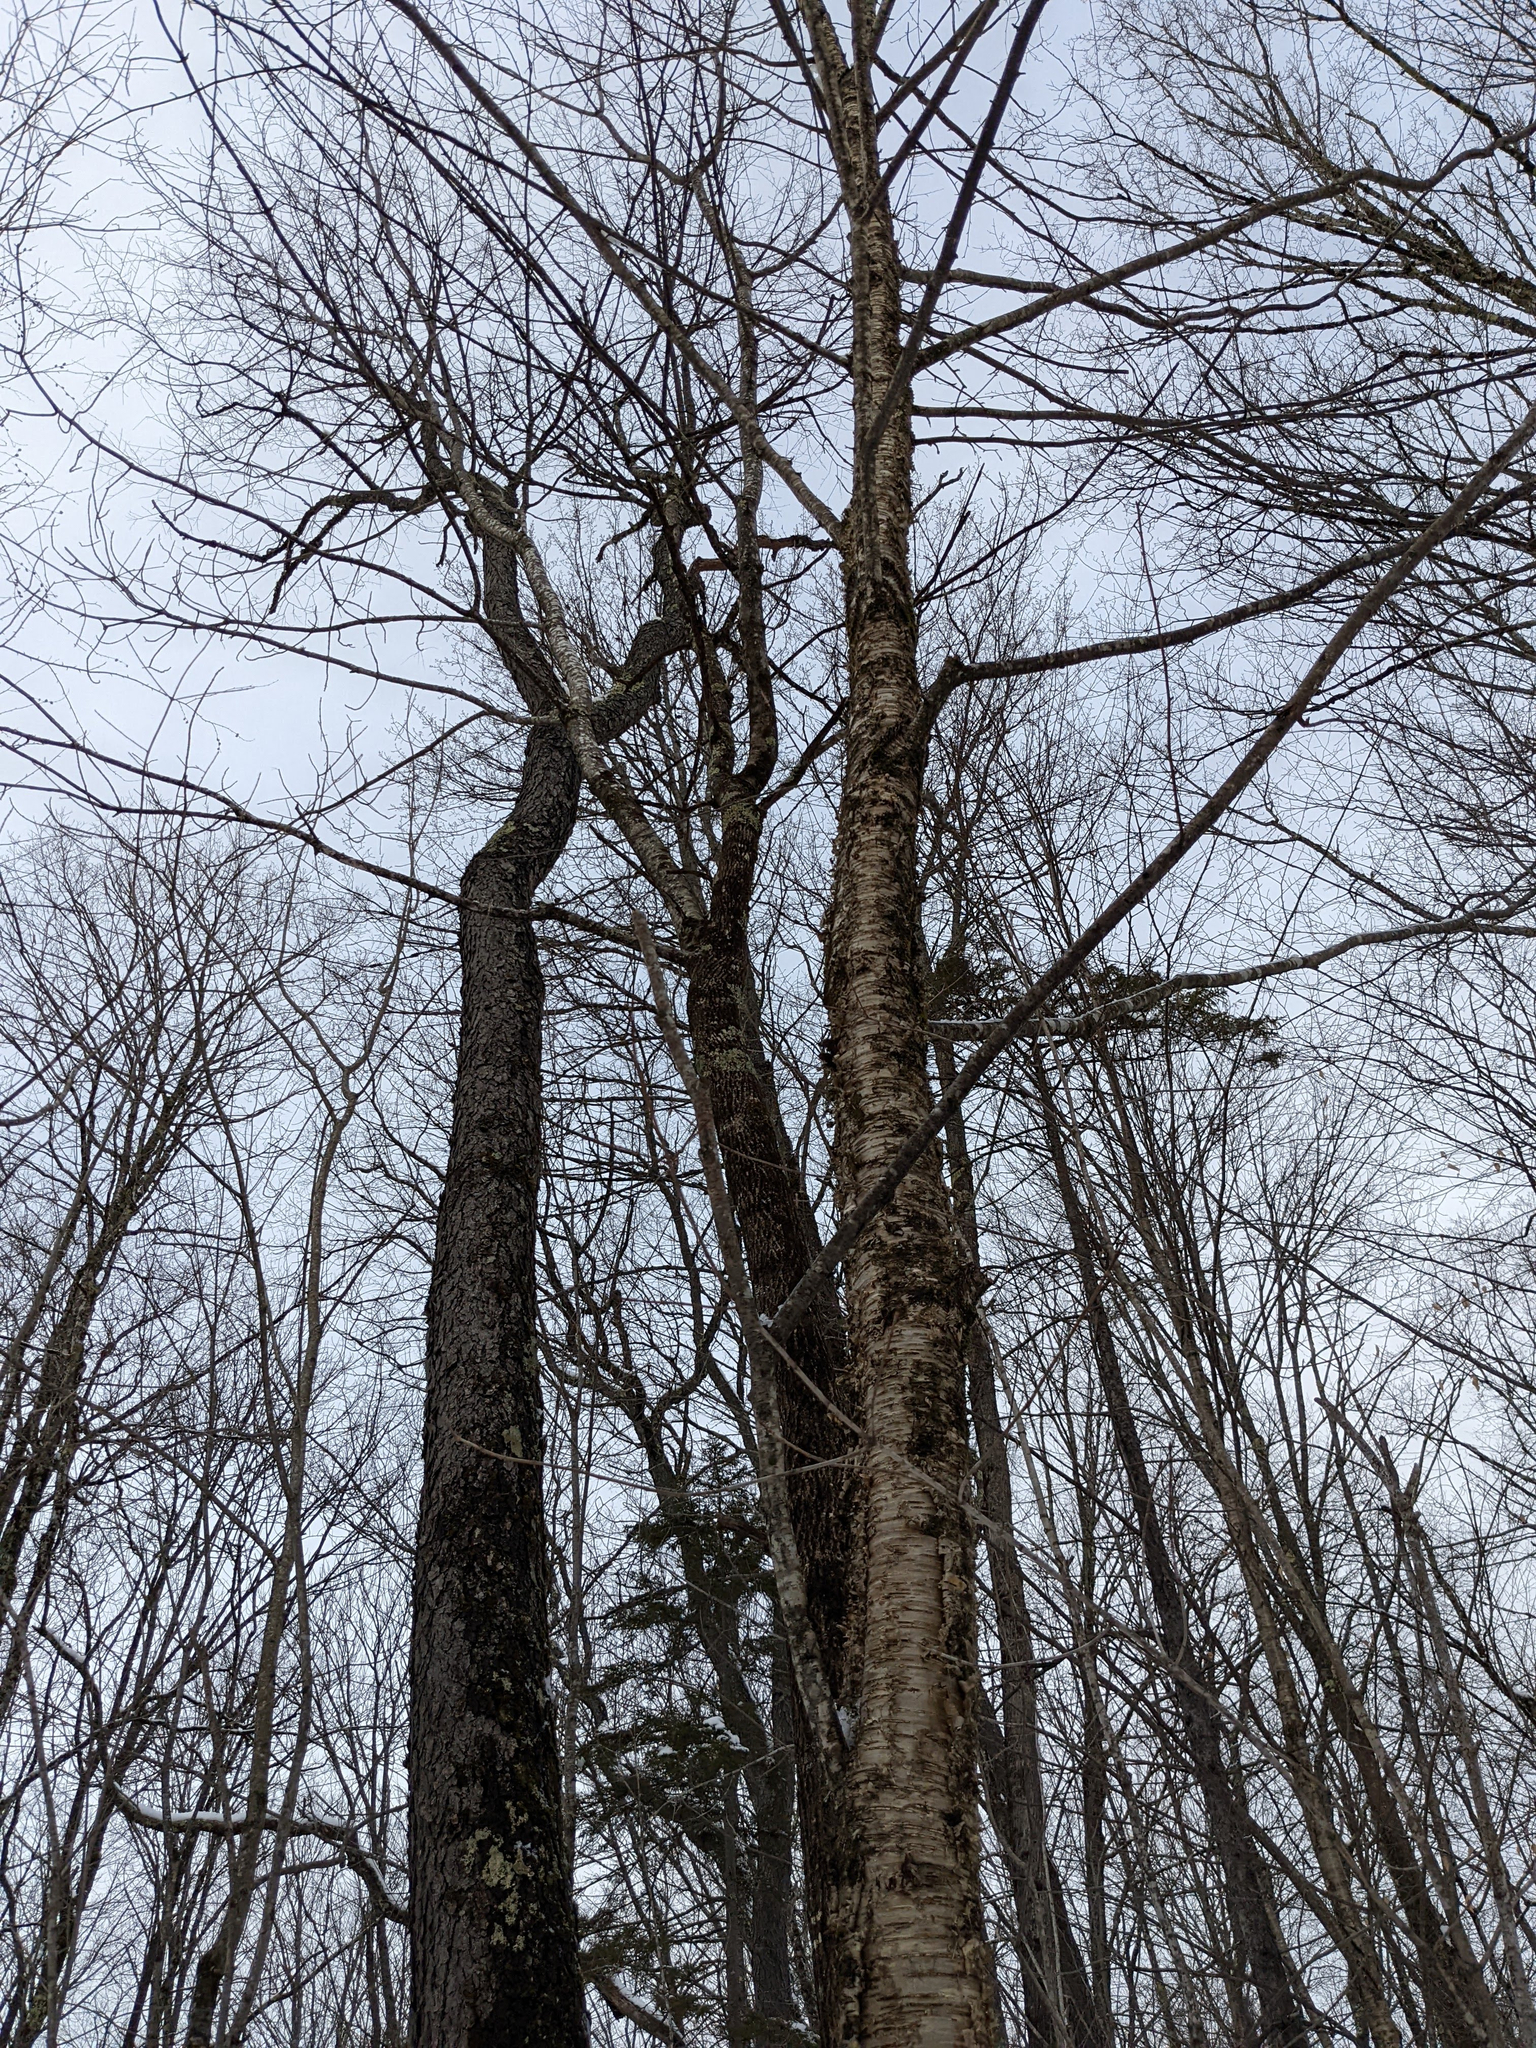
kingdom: Plantae
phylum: Tracheophyta
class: Magnoliopsida
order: Fagales
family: Betulaceae
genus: Betula
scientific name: Betula alleghaniensis
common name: Yellow birch
